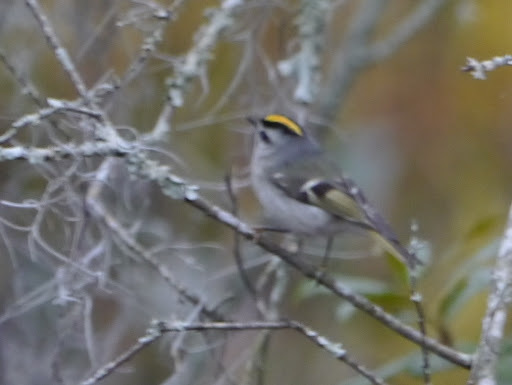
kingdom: Animalia
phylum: Chordata
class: Aves
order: Passeriformes
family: Regulidae
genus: Regulus
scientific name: Regulus satrapa
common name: Golden-crowned kinglet
